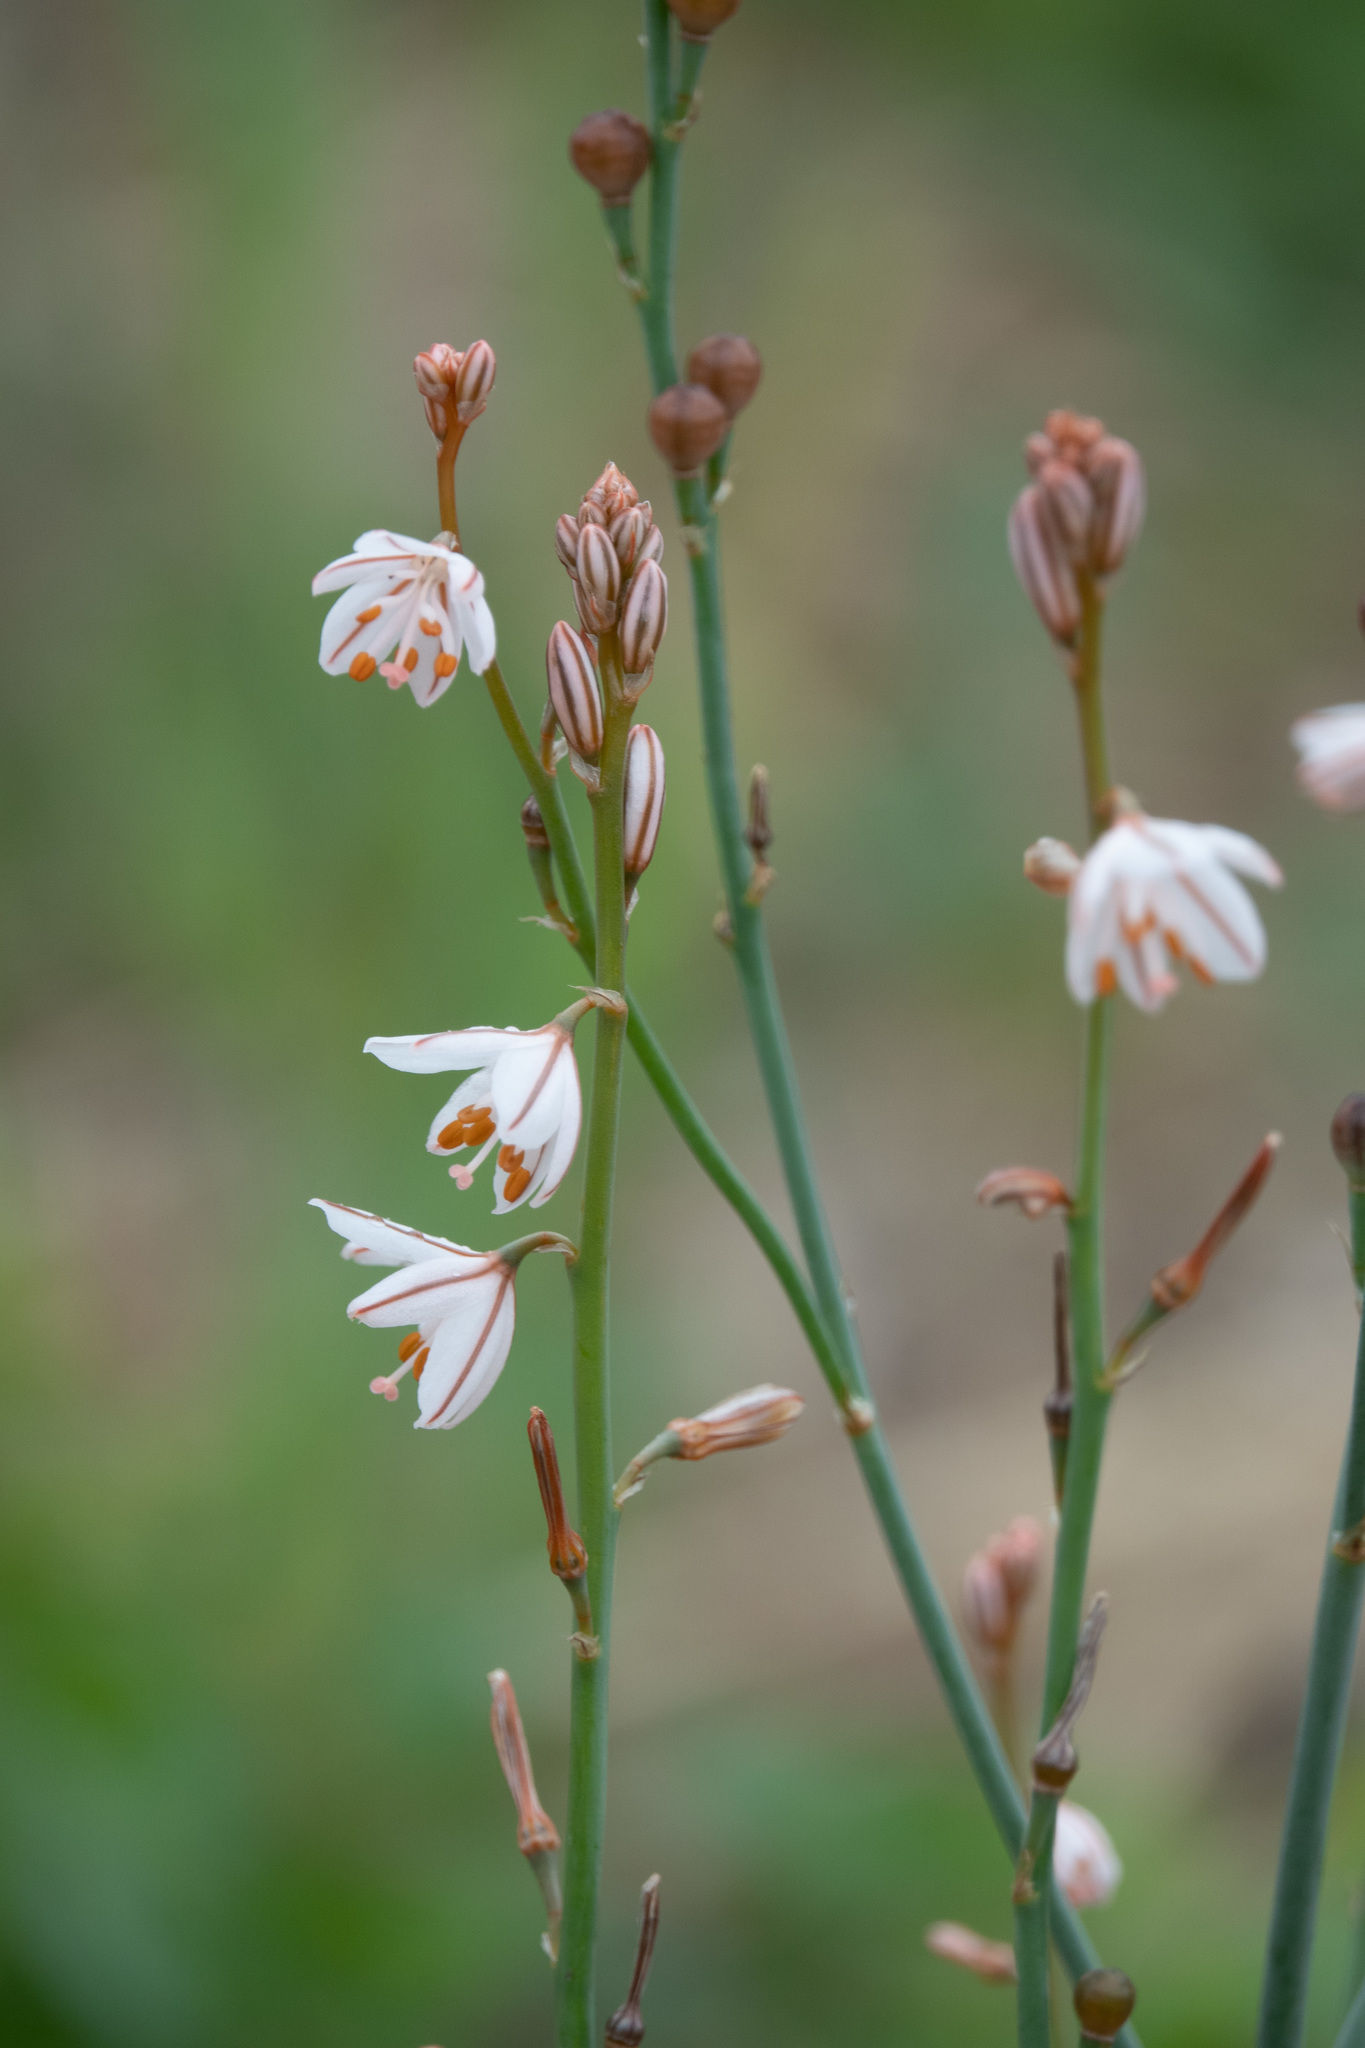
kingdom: Plantae
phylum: Tracheophyta
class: Liliopsida
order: Asparagales
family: Asphodelaceae
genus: Asphodelus
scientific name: Asphodelus fistulosus
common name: Onionweed
